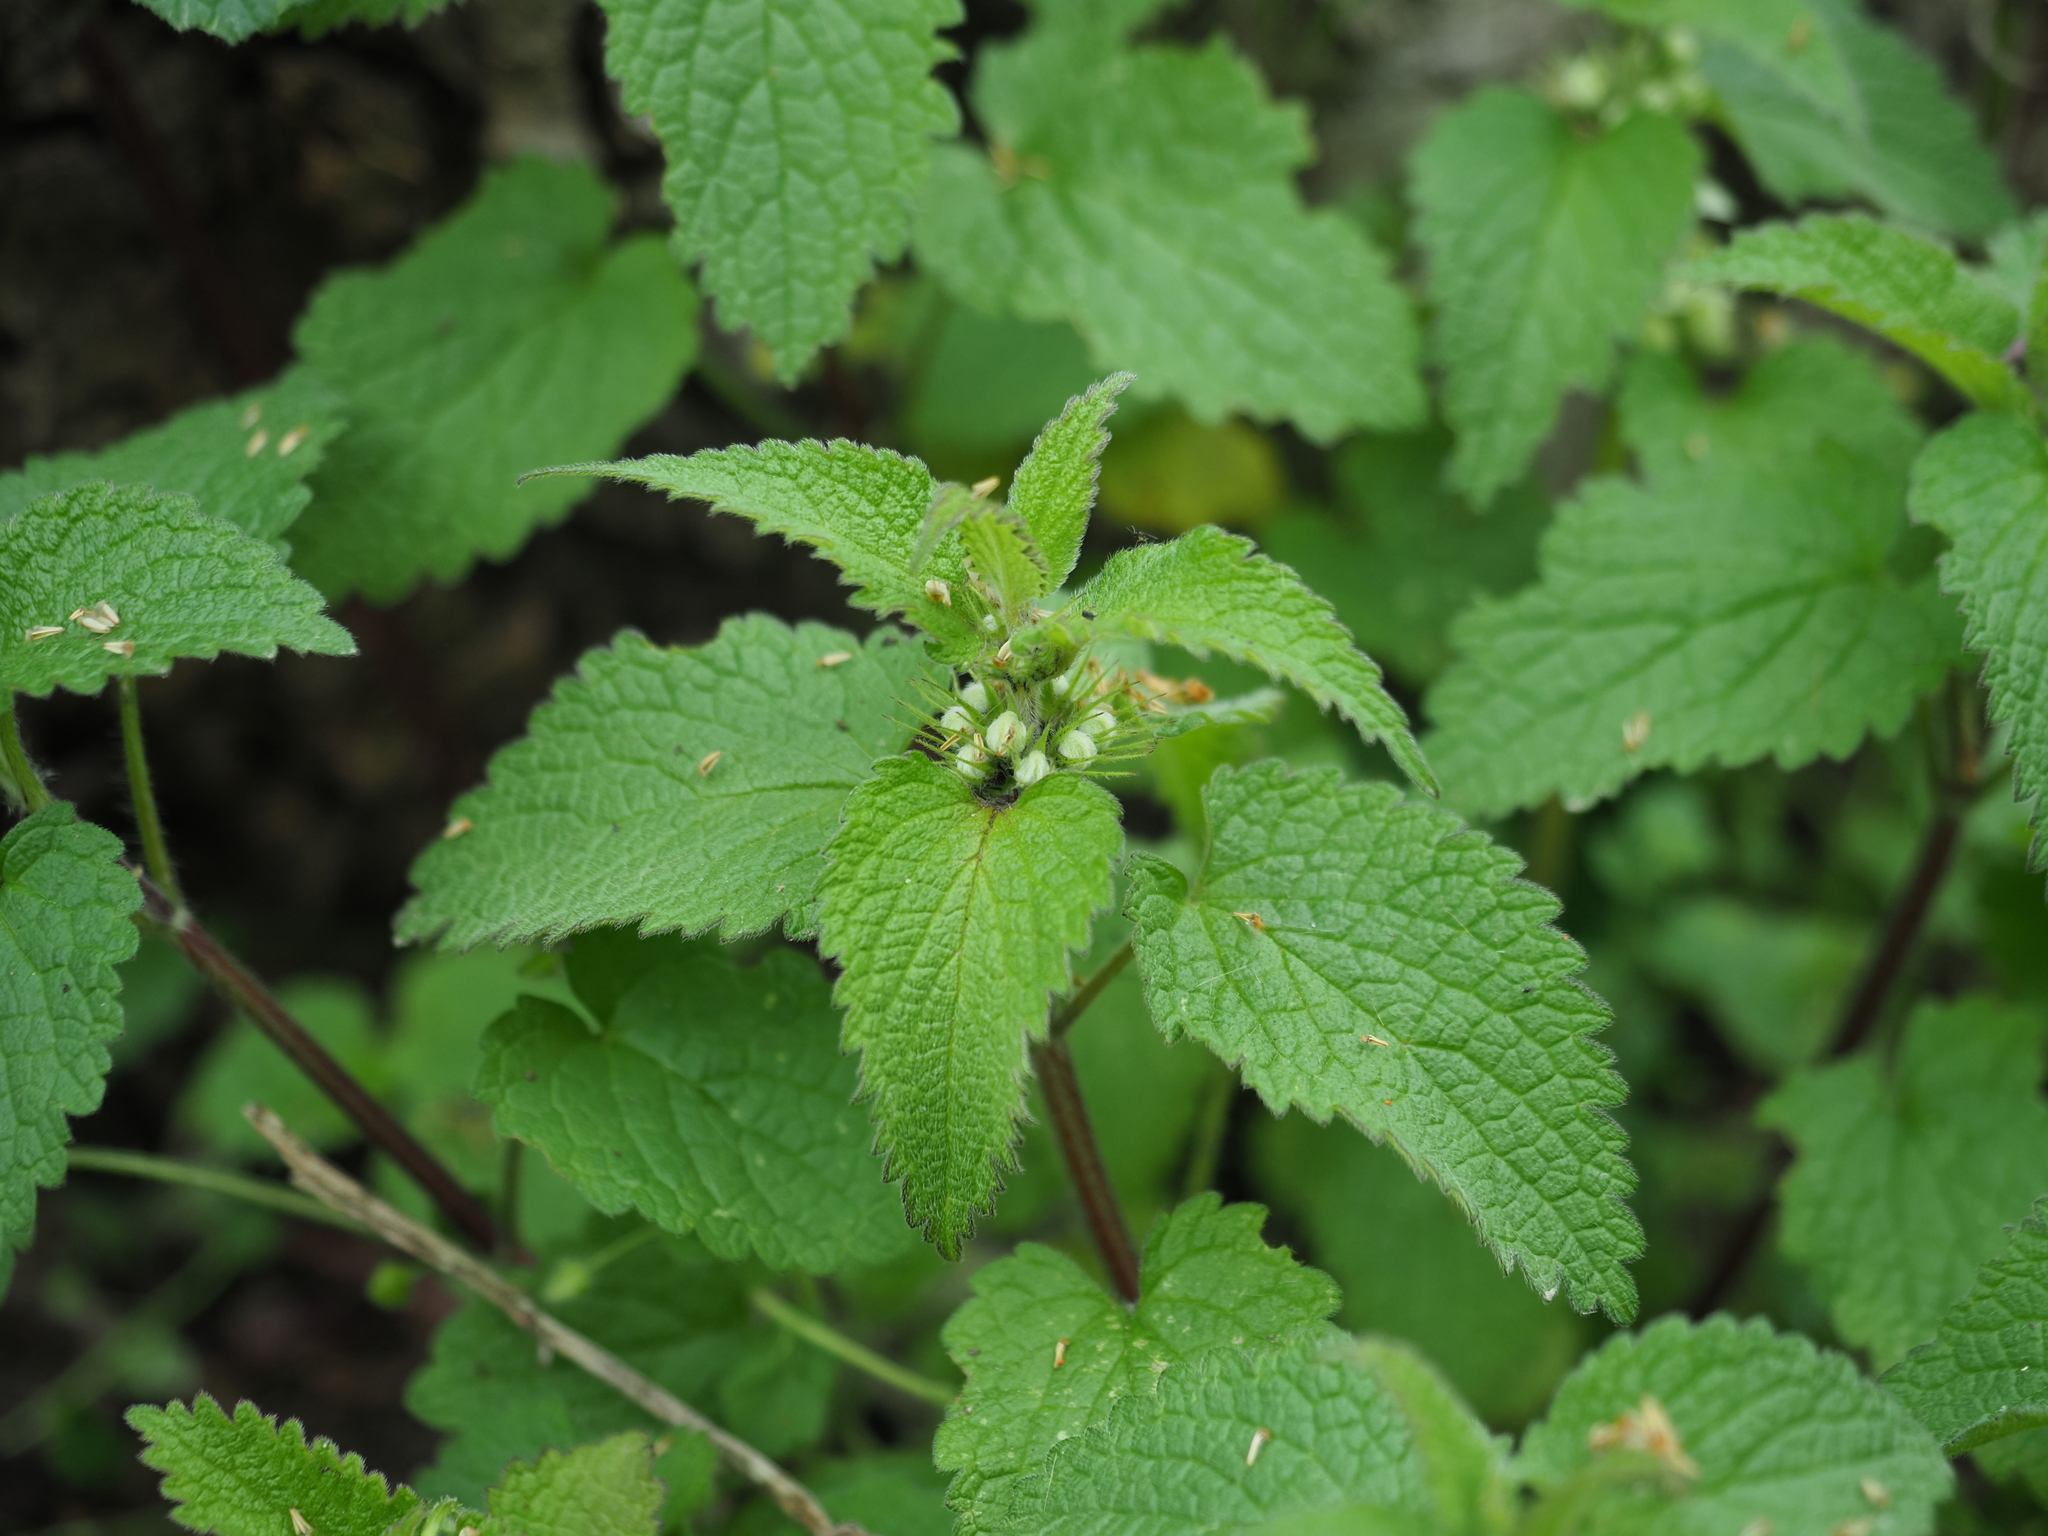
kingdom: Plantae
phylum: Tracheophyta
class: Magnoliopsida
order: Lamiales
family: Lamiaceae
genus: Lamium
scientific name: Lamium album
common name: White dead-nettle
